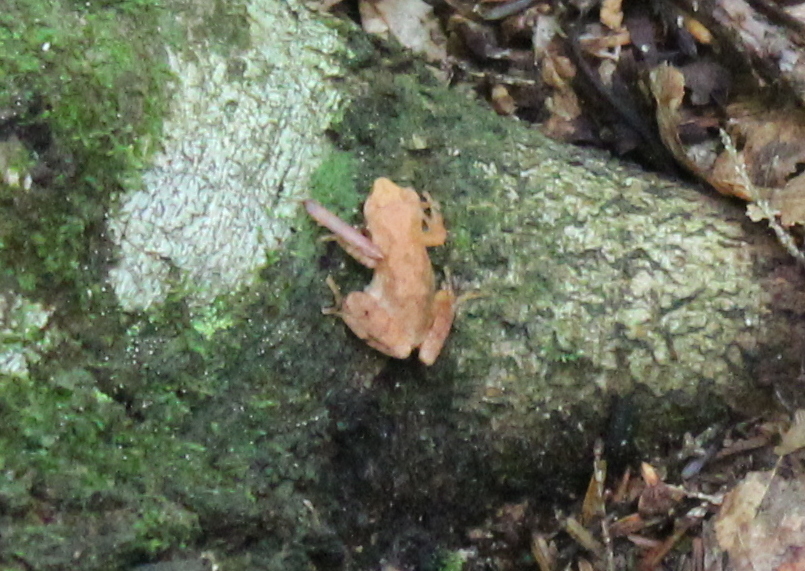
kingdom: Animalia
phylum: Chordata
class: Amphibia
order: Anura
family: Hylidae
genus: Pseudacris
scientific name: Pseudacris crucifer
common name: Spring peeper
